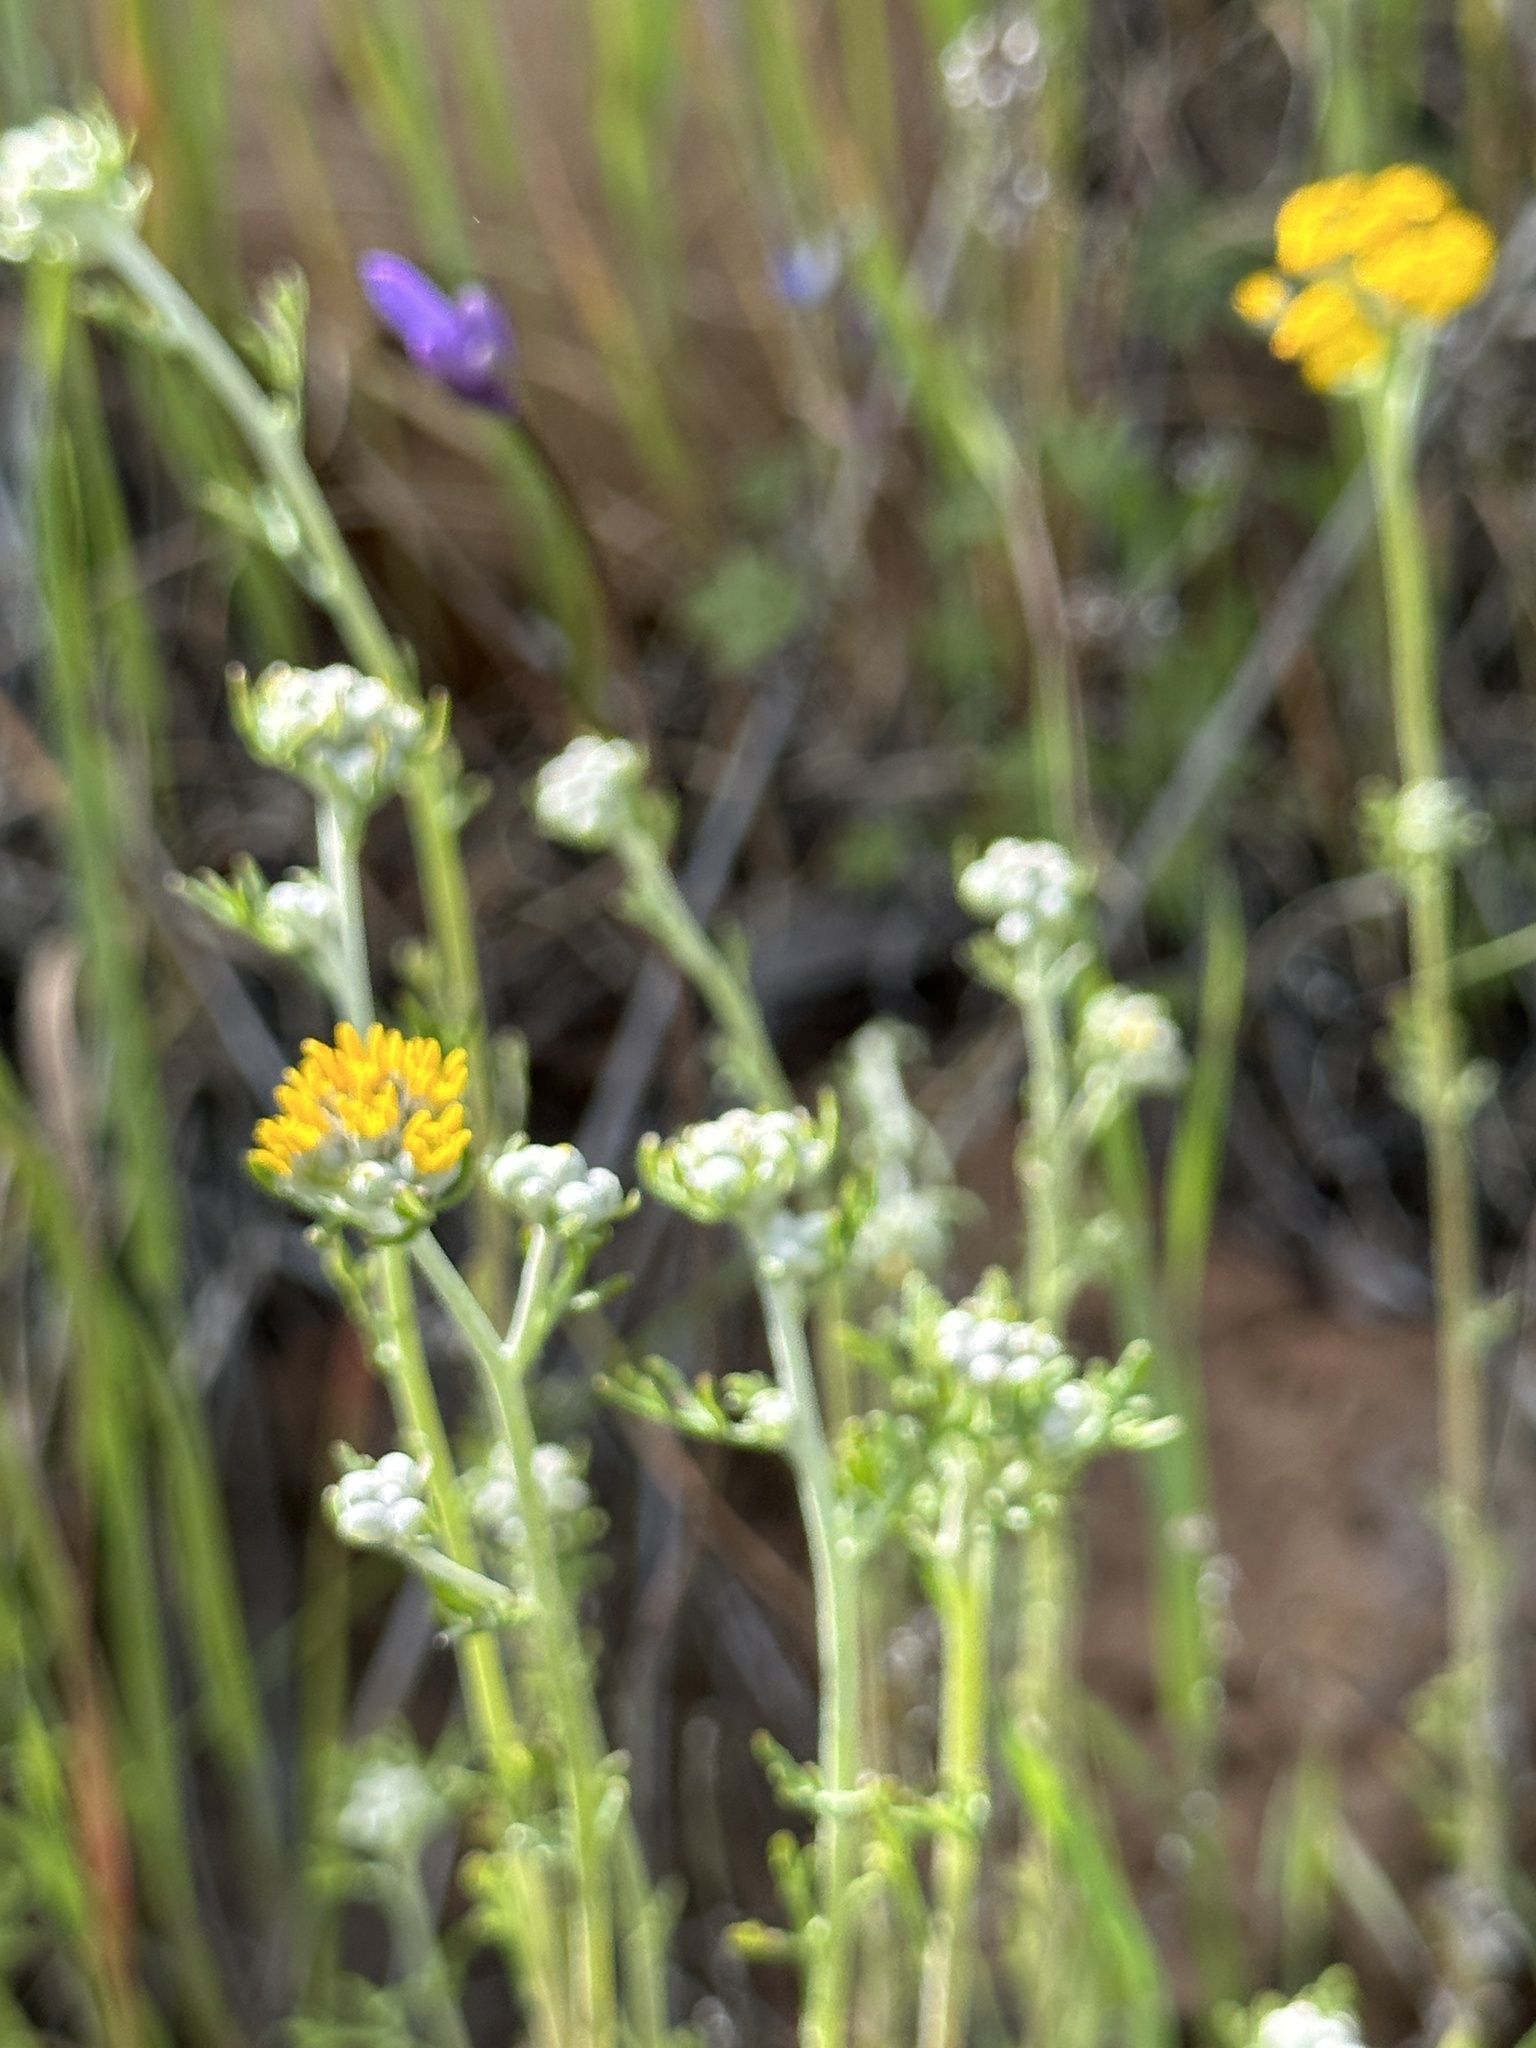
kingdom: Plantae
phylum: Tracheophyta
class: Magnoliopsida
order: Asterales
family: Asteraceae
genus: Eriophyllum
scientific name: Eriophyllum confertiflorum
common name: Golden-yarrow
